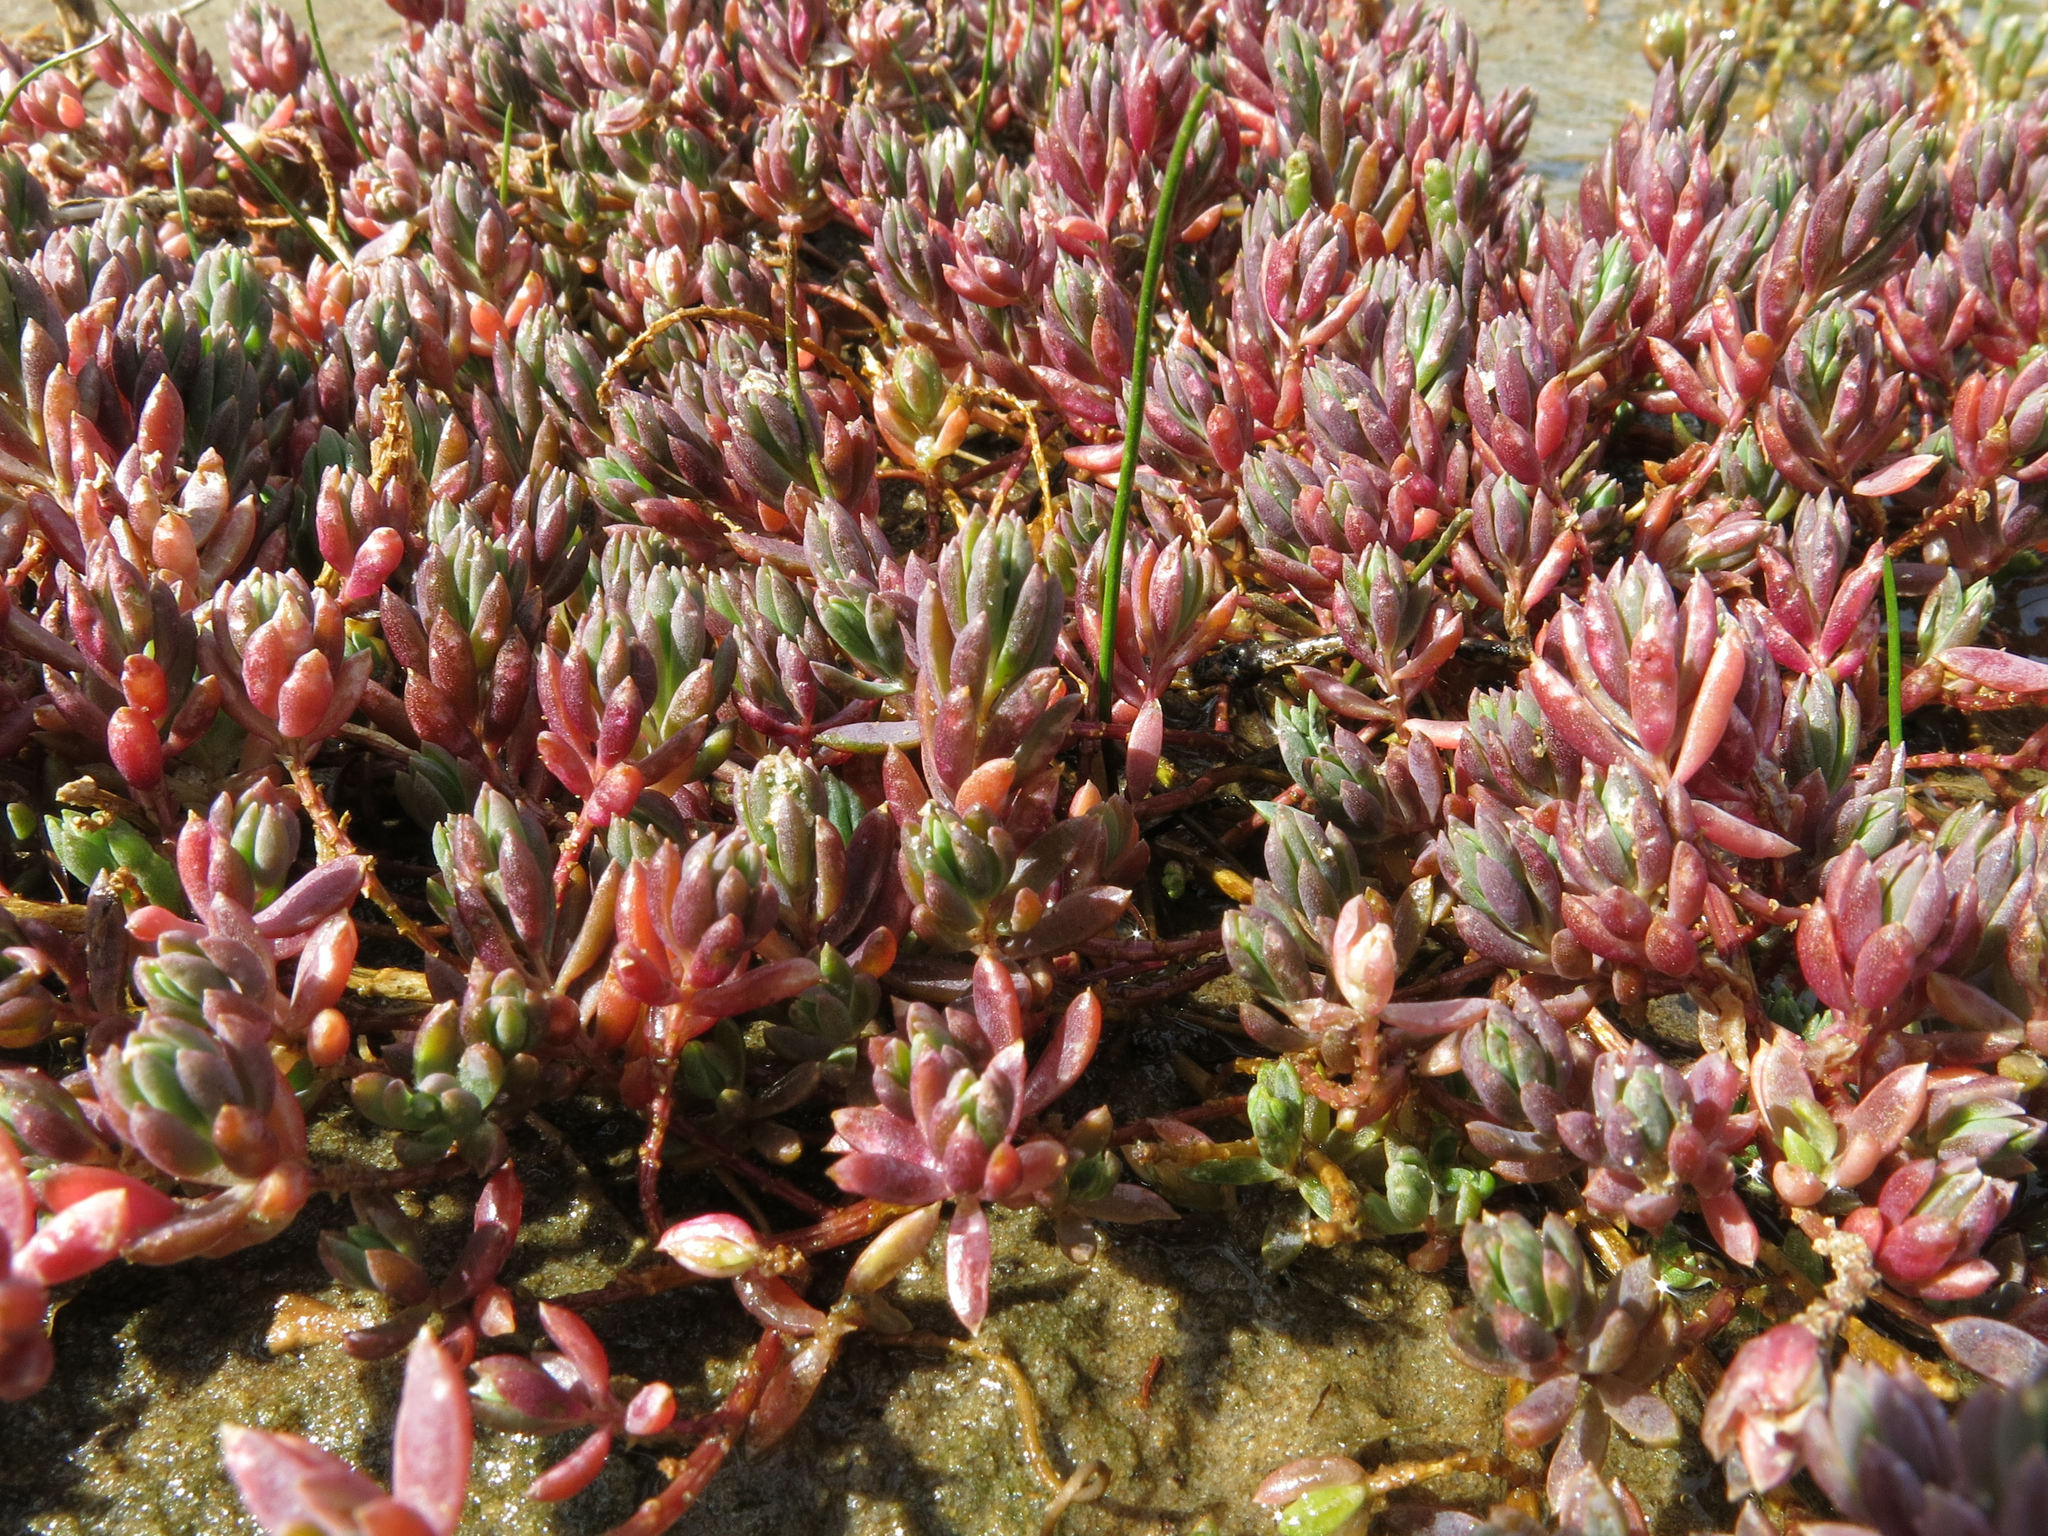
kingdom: Plantae
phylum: Tracheophyta
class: Magnoliopsida
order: Caryophyllales
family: Amaranthaceae
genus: Suaeda
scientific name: Suaeda novae-zelandiae
